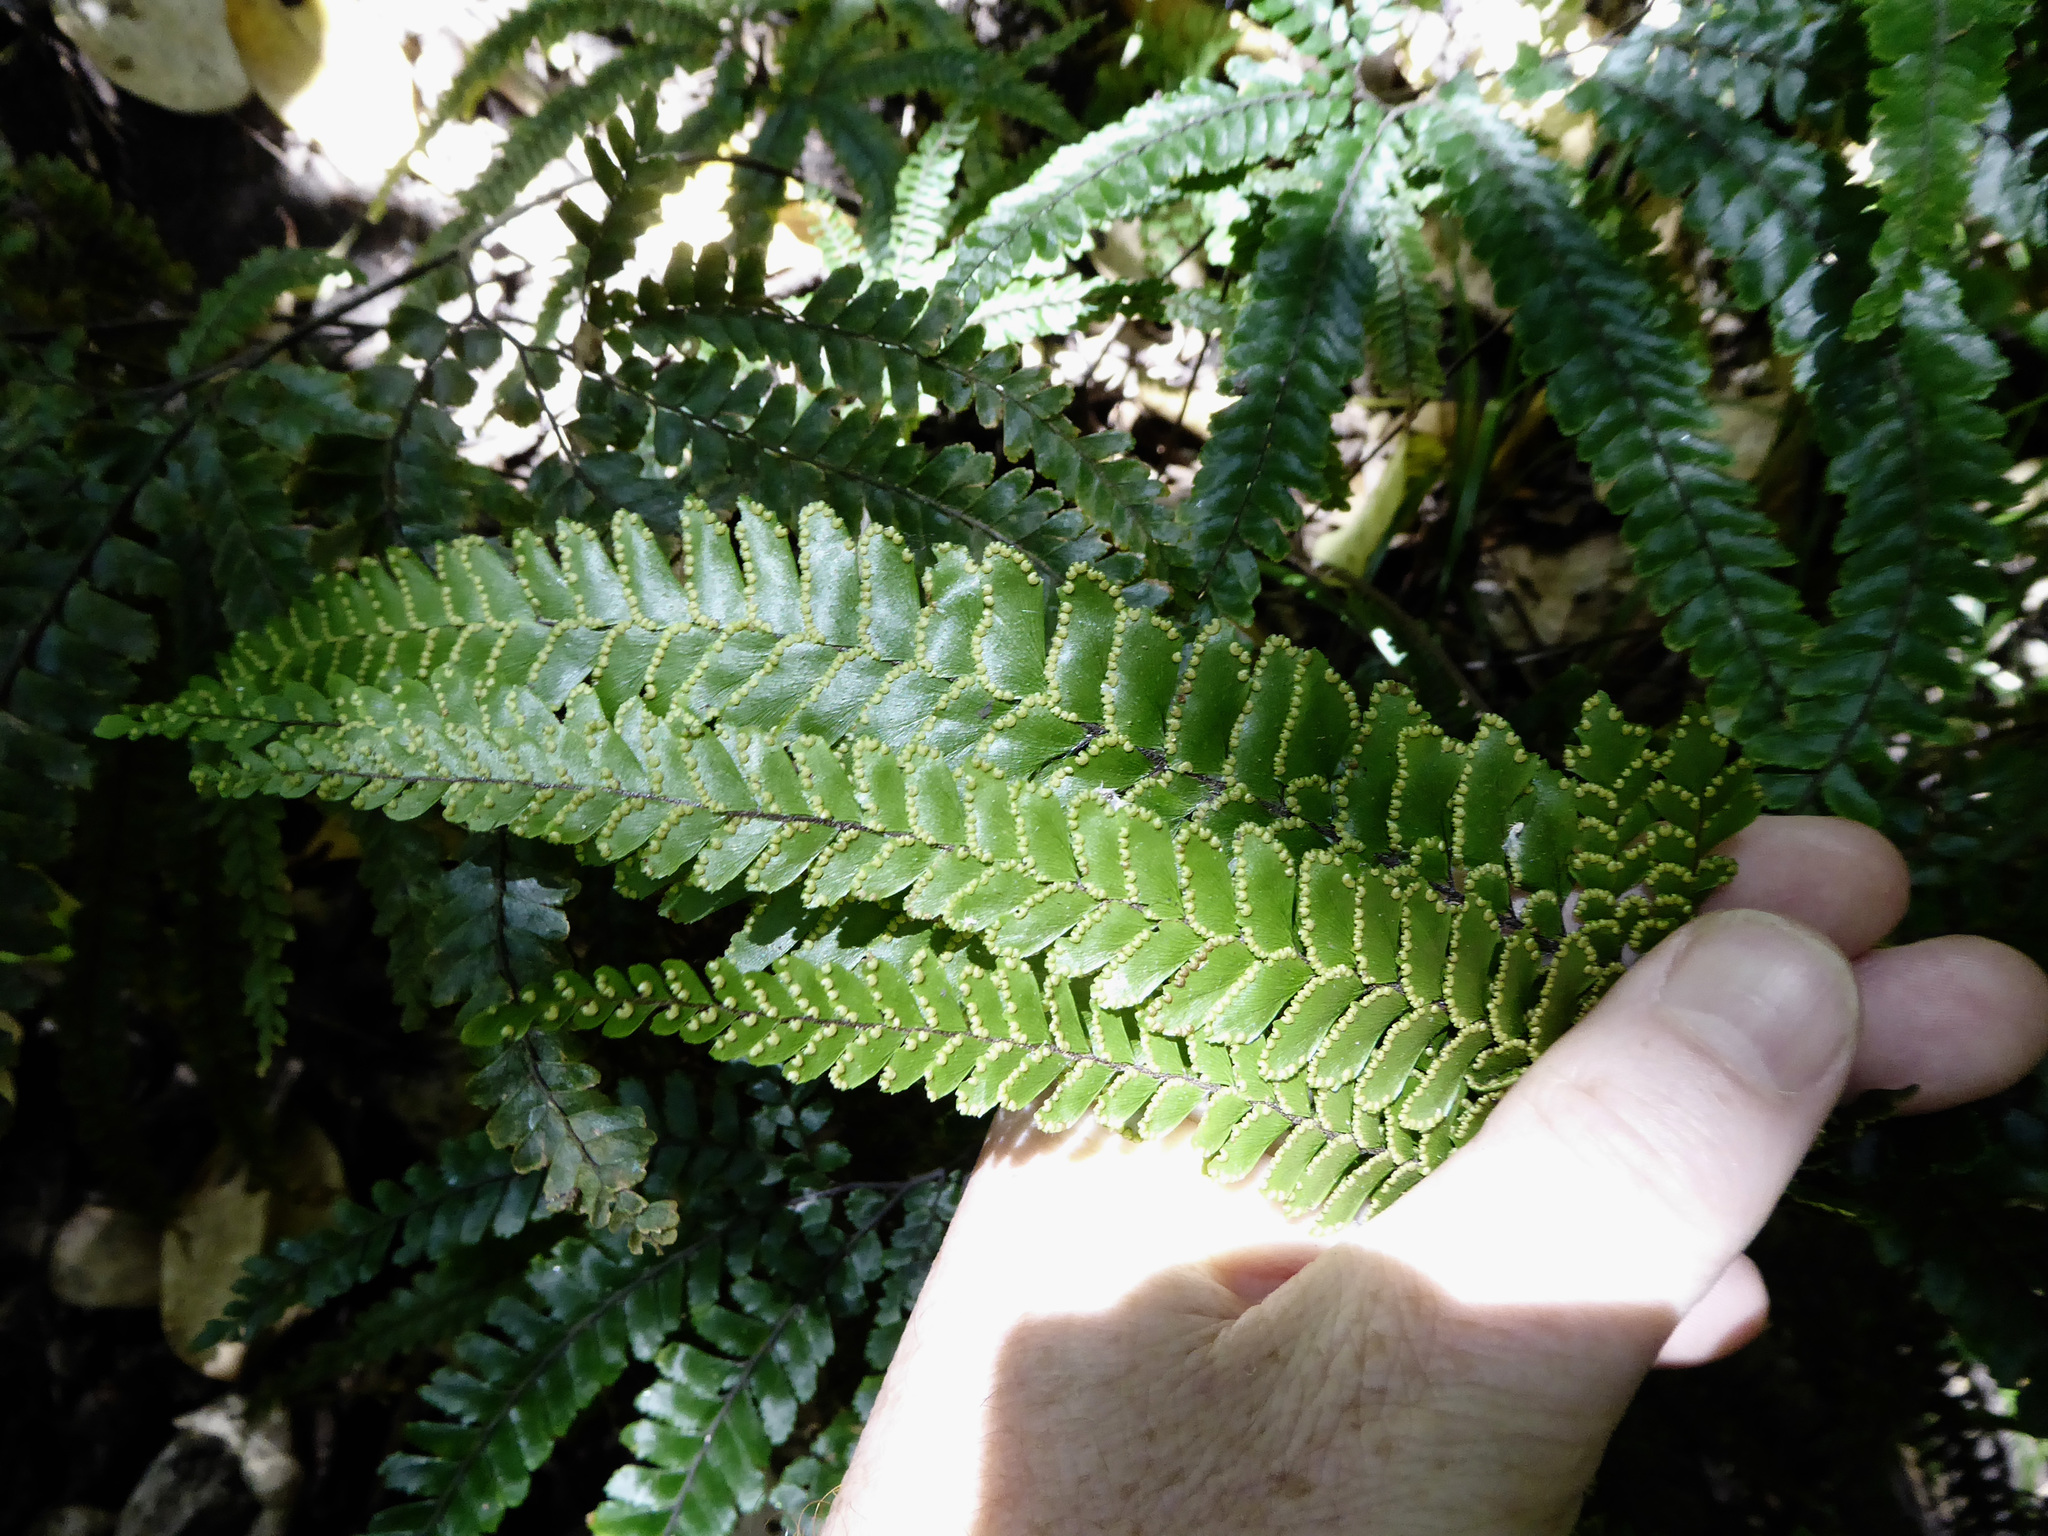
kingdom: Plantae
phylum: Tracheophyta
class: Polypodiopsida
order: Polypodiales
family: Pteridaceae
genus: Adiantum
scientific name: Adiantum hispidulum
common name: Rough maidenhair
